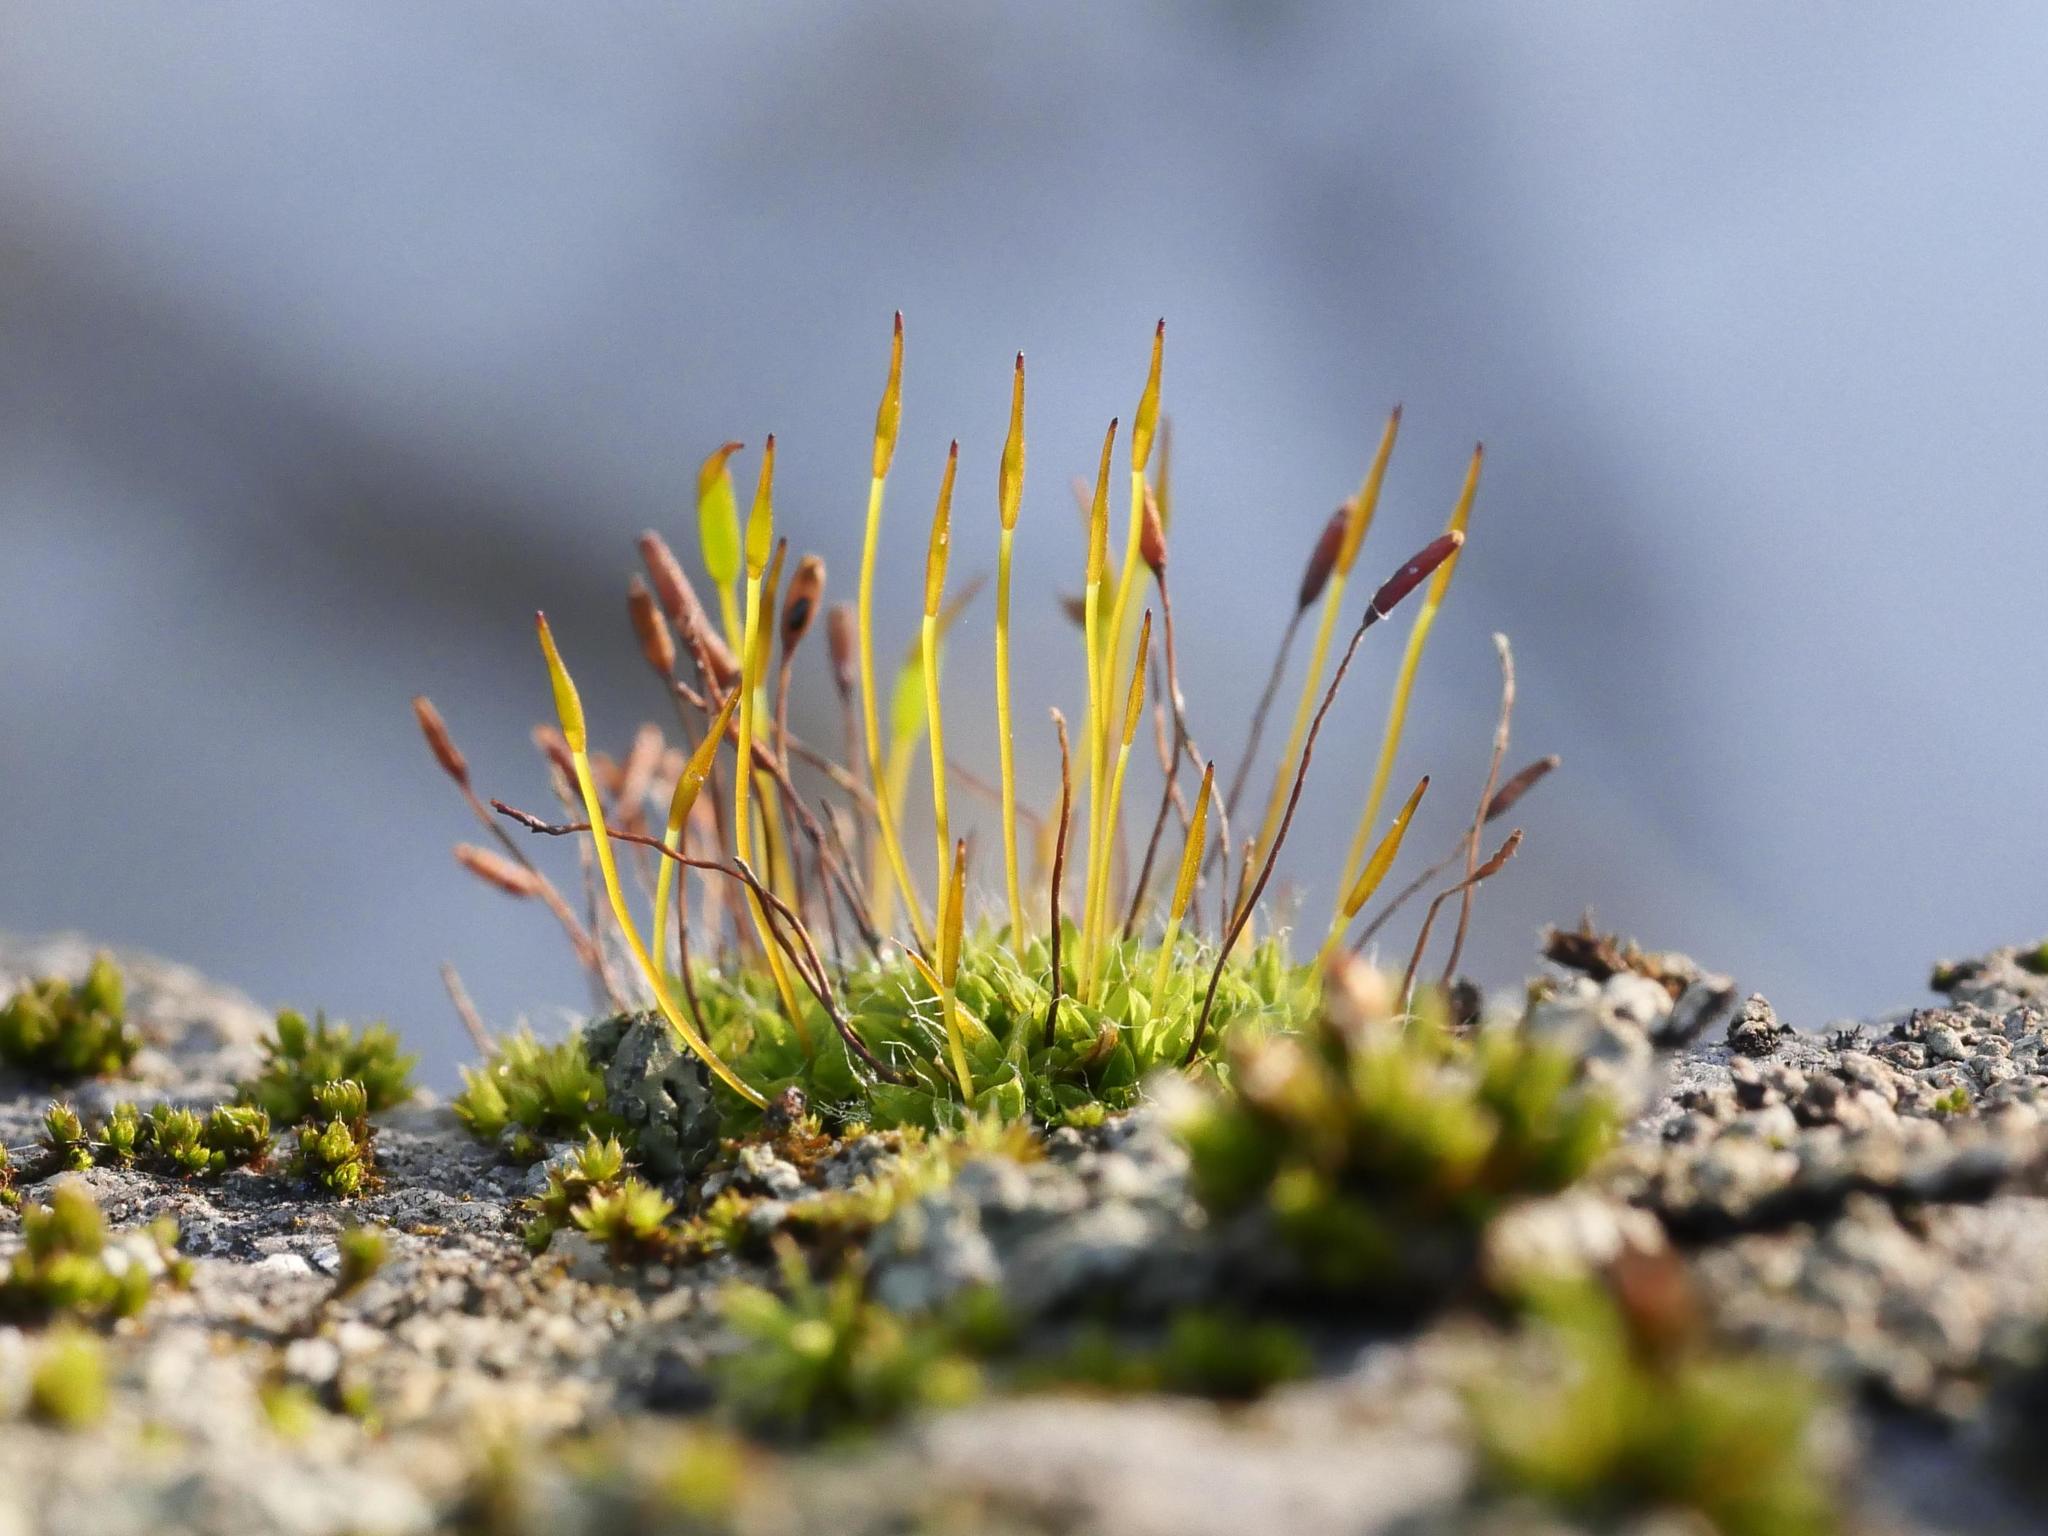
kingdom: Plantae
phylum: Bryophyta
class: Bryopsida
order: Pottiales
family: Pottiaceae
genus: Tortula
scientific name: Tortula muralis
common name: Wall screw-moss
